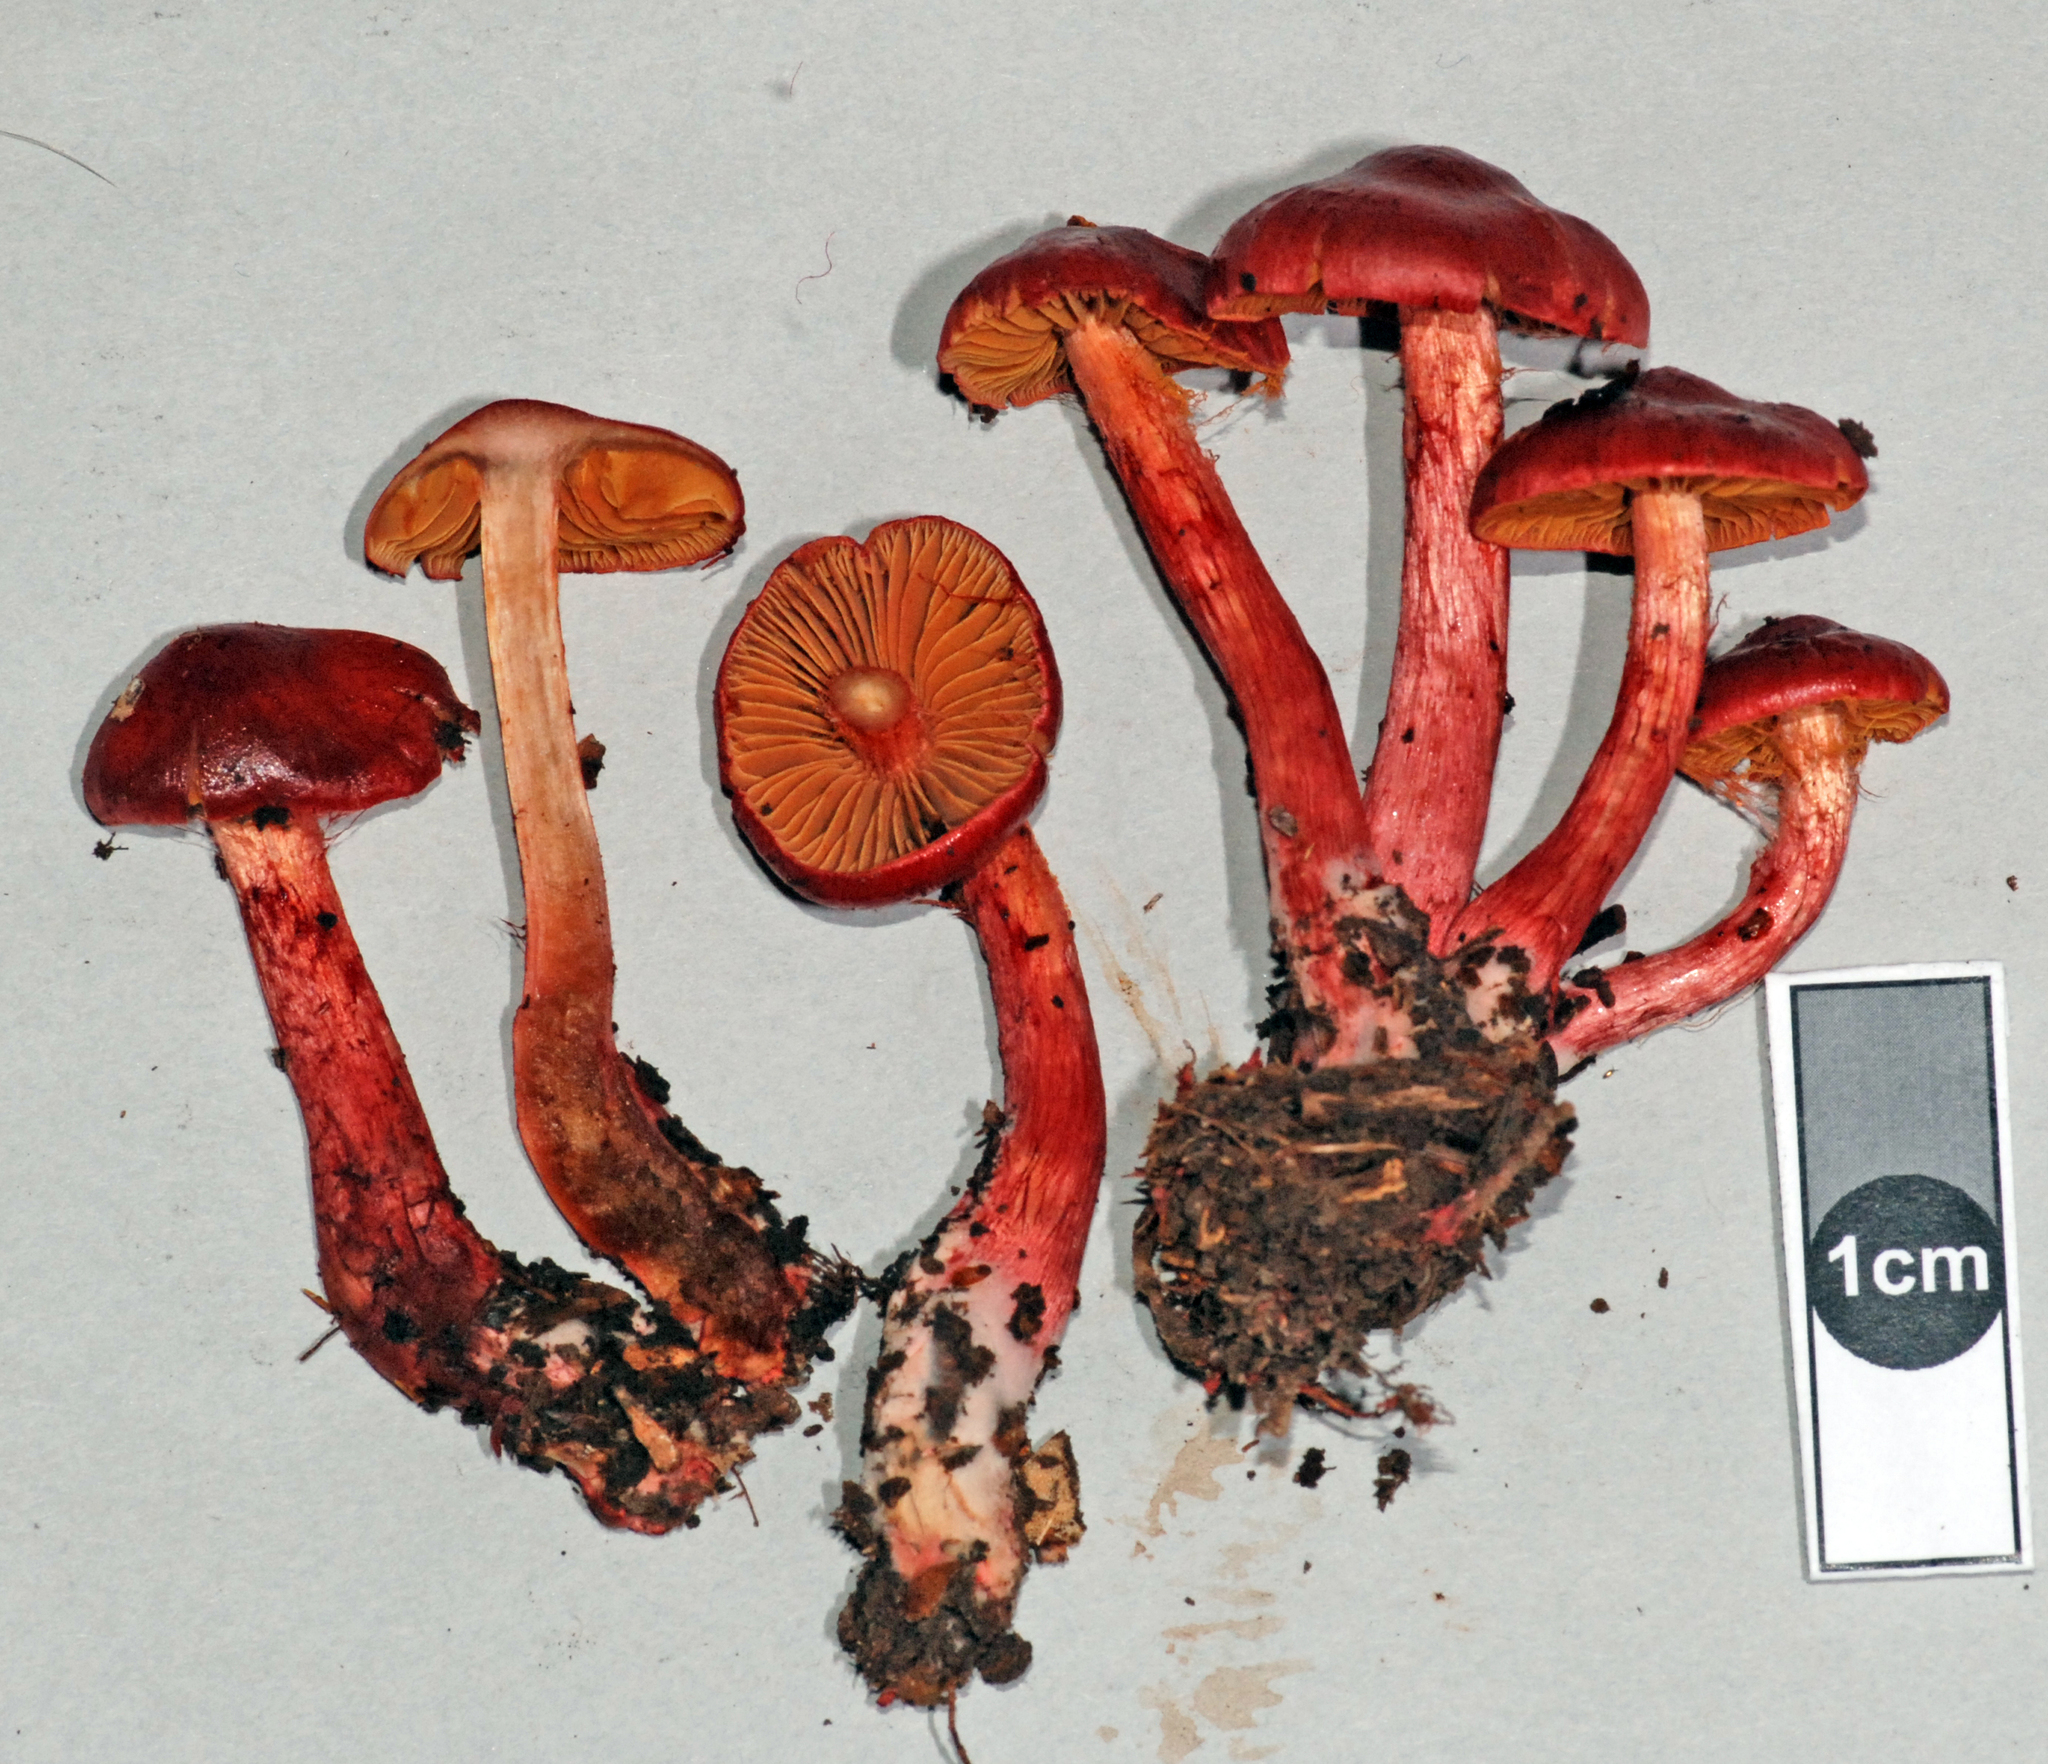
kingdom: Fungi
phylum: Basidiomycota
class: Agaricomycetes
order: Agaricales
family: Cortinariaceae
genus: Cortinarius
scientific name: Cortinarius cardinalis
